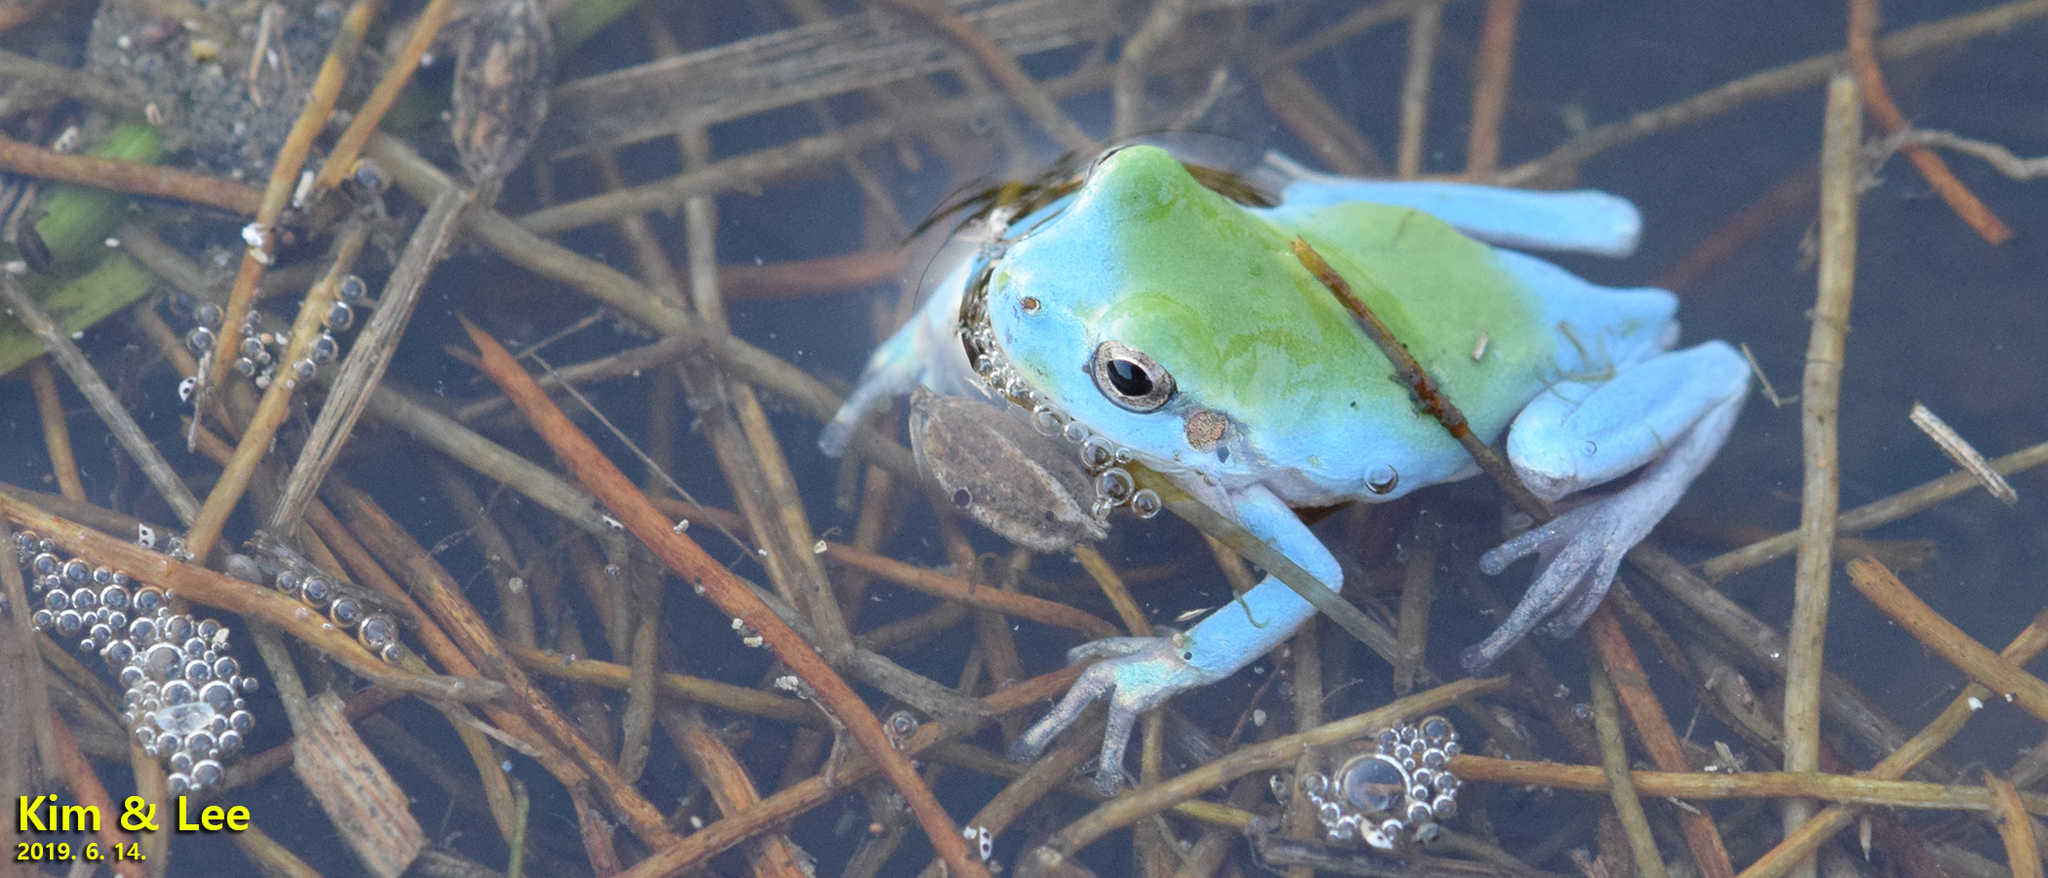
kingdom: Animalia
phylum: Chordata
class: Amphibia
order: Anura
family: Hylidae
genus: Dryophytes
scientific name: Dryophytes japonicus
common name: Japanese treefrog
